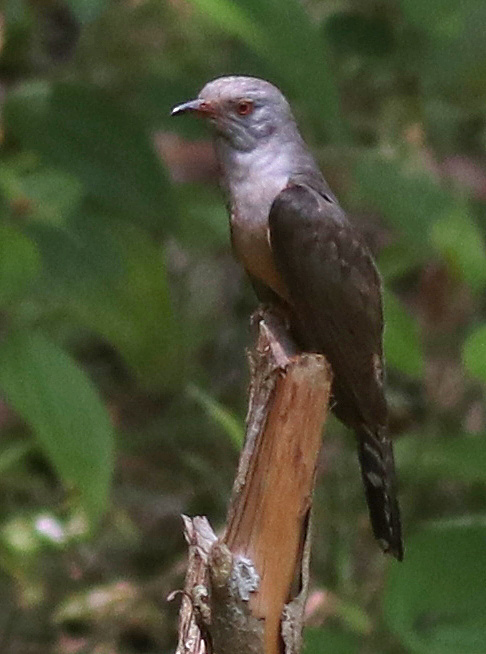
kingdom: Animalia
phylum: Chordata
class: Aves
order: Cuculiformes
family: Cuculidae
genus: Cacomantis
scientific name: Cacomantis merulinus
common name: Plaintive cuckoo
